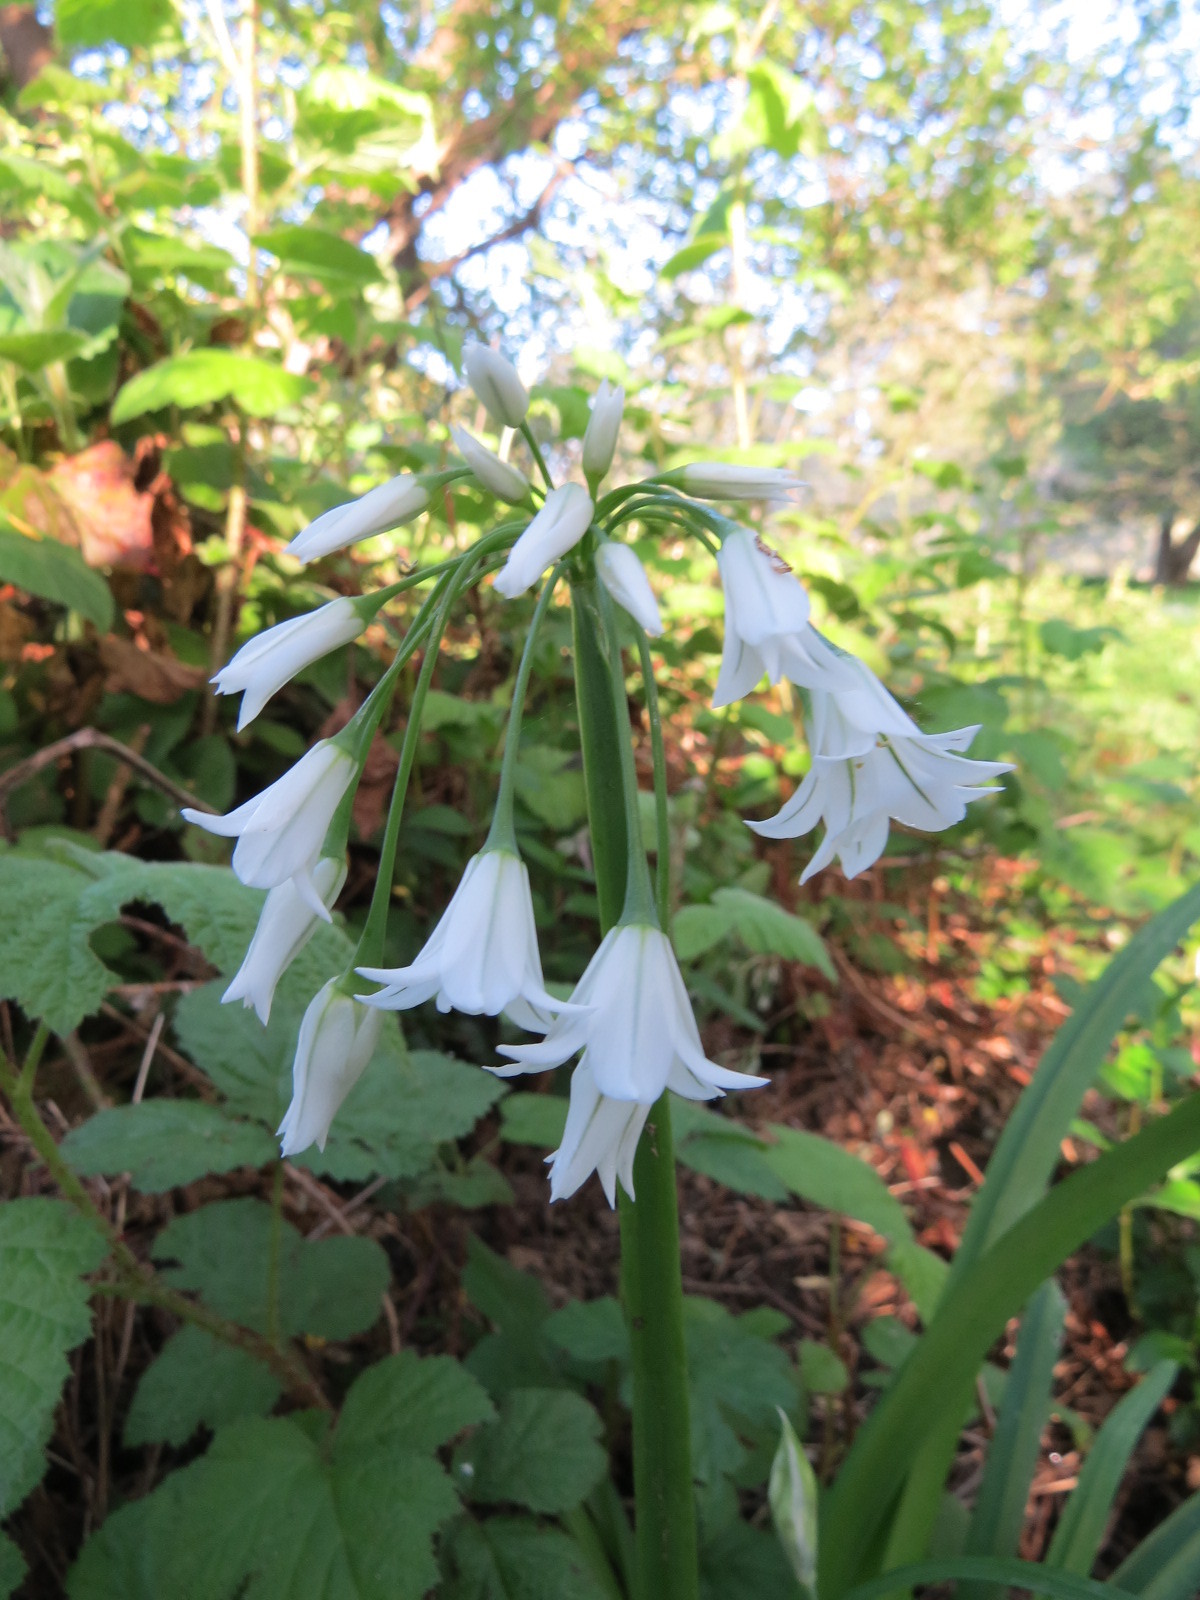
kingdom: Plantae
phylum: Tracheophyta
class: Liliopsida
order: Asparagales
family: Amaryllidaceae
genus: Allium
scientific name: Allium triquetrum
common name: Three-cornered garlic
